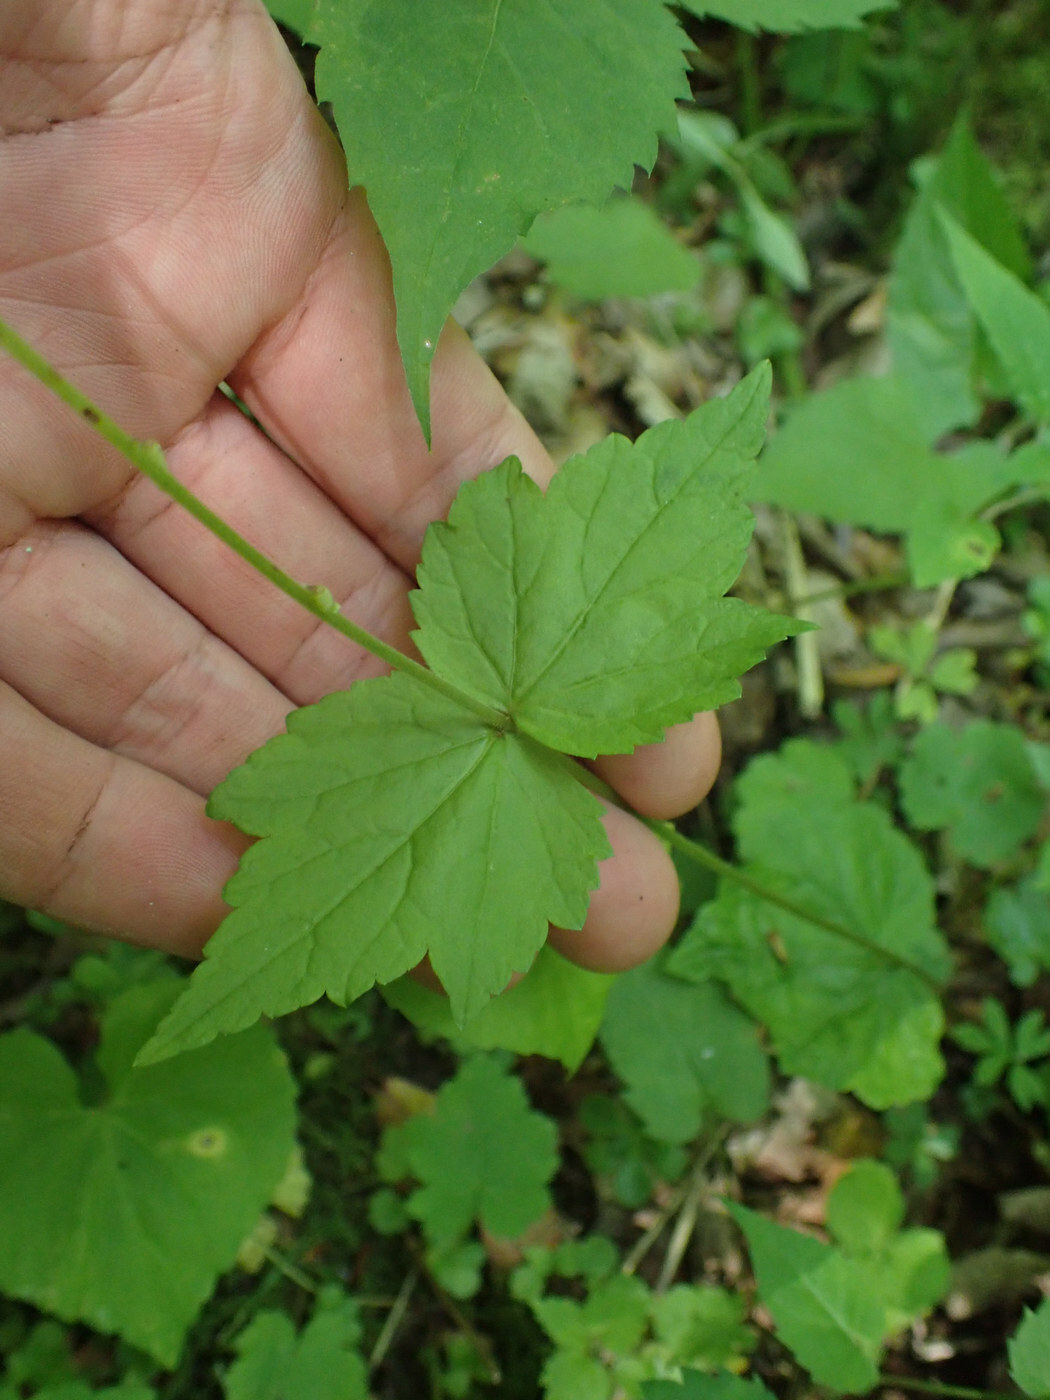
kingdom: Plantae
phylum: Tracheophyta
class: Magnoliopsida
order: Saxifragales
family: Saxifragaceae
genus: Mitella
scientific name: Mitella diphylla
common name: Coolwort
